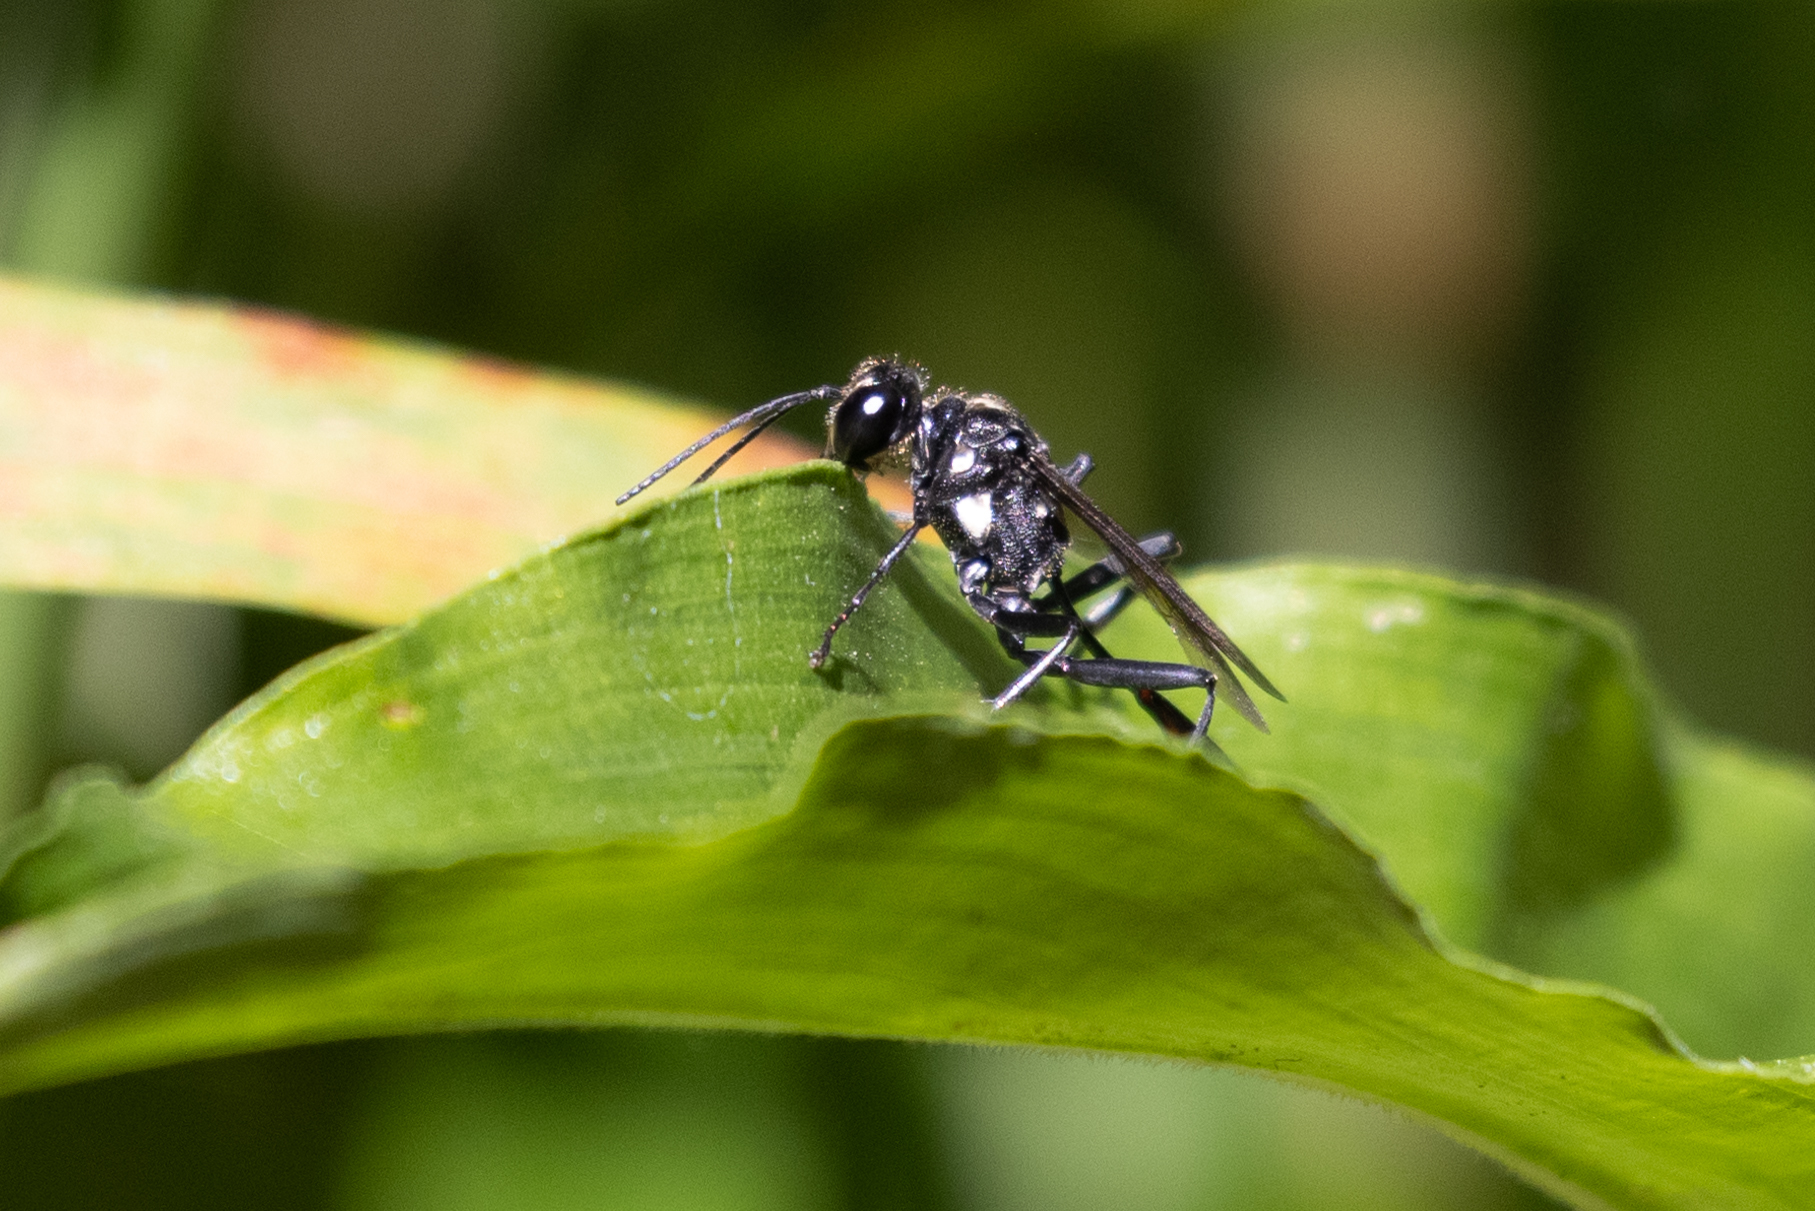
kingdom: Animalia
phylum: Arthropoda
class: Insecta
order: Hymenoptera
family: Sphecidae
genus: Eremnophila
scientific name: Eremnophila aureonotata
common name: Gold-marked thread-waisted wasp
